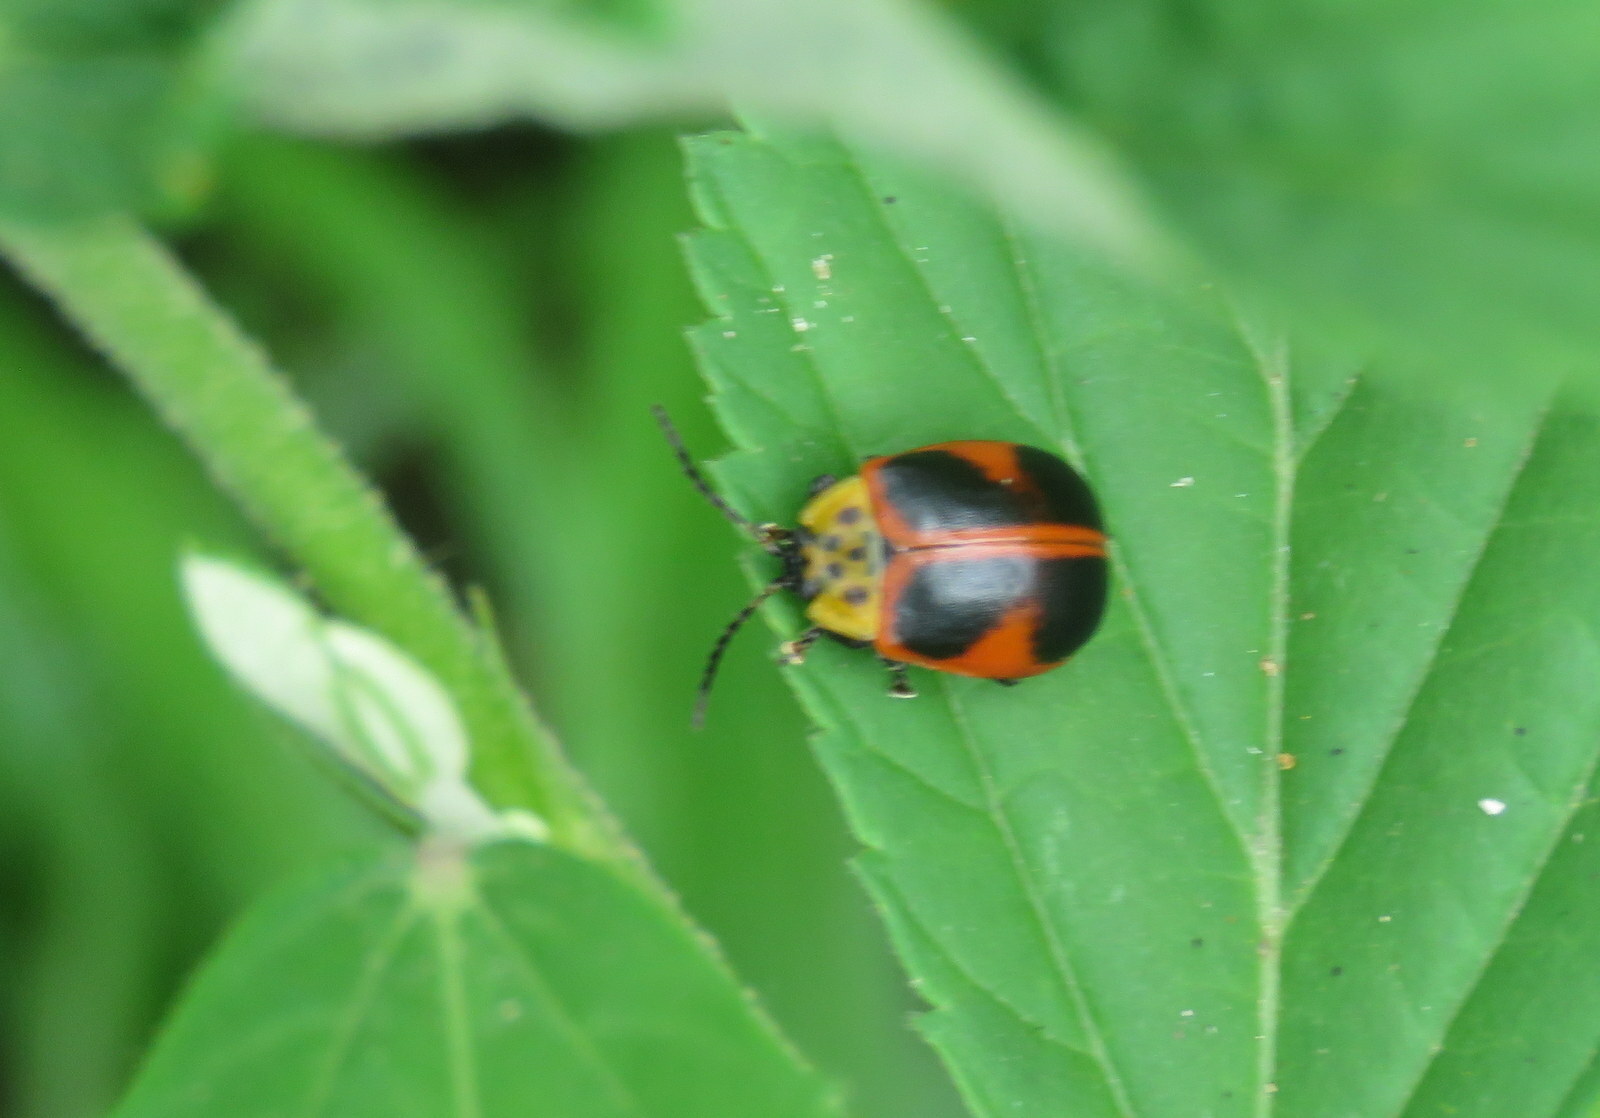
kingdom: Animalia
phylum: Arthropoda
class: Insecta
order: Coleoptera
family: Chrysomelidae
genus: Paranaita
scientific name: Paranaita
